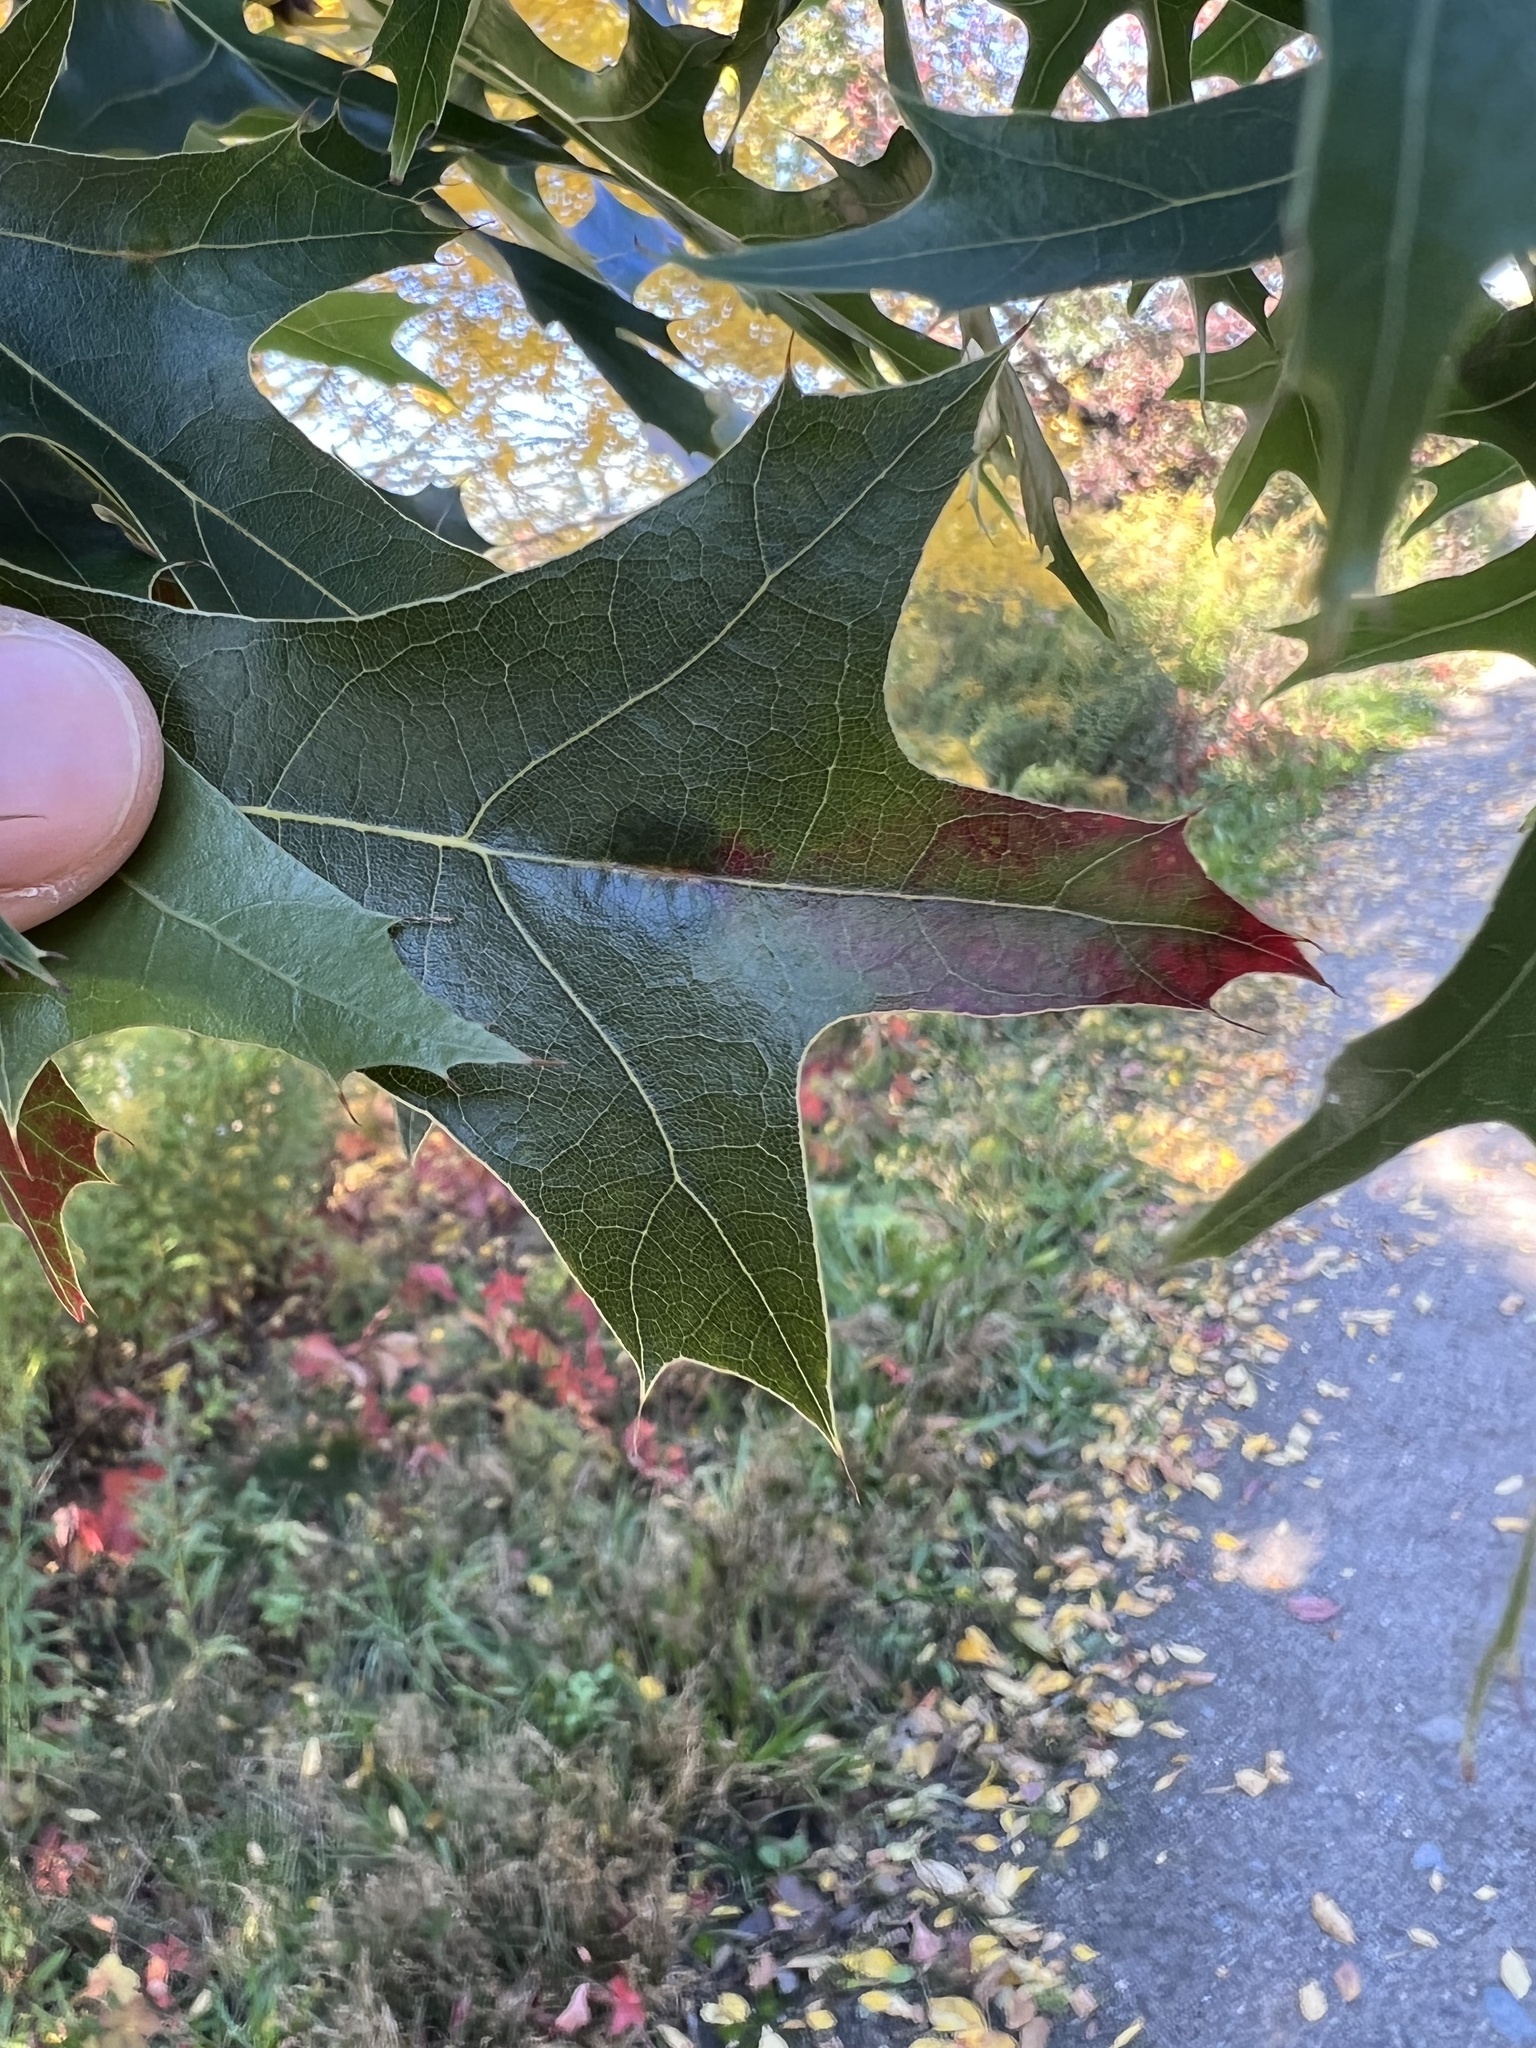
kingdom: Animalia
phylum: Arthropoda
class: Insecta
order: Hymenoptera
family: Cynipidae
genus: Callirhytis
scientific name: Callirhytis
